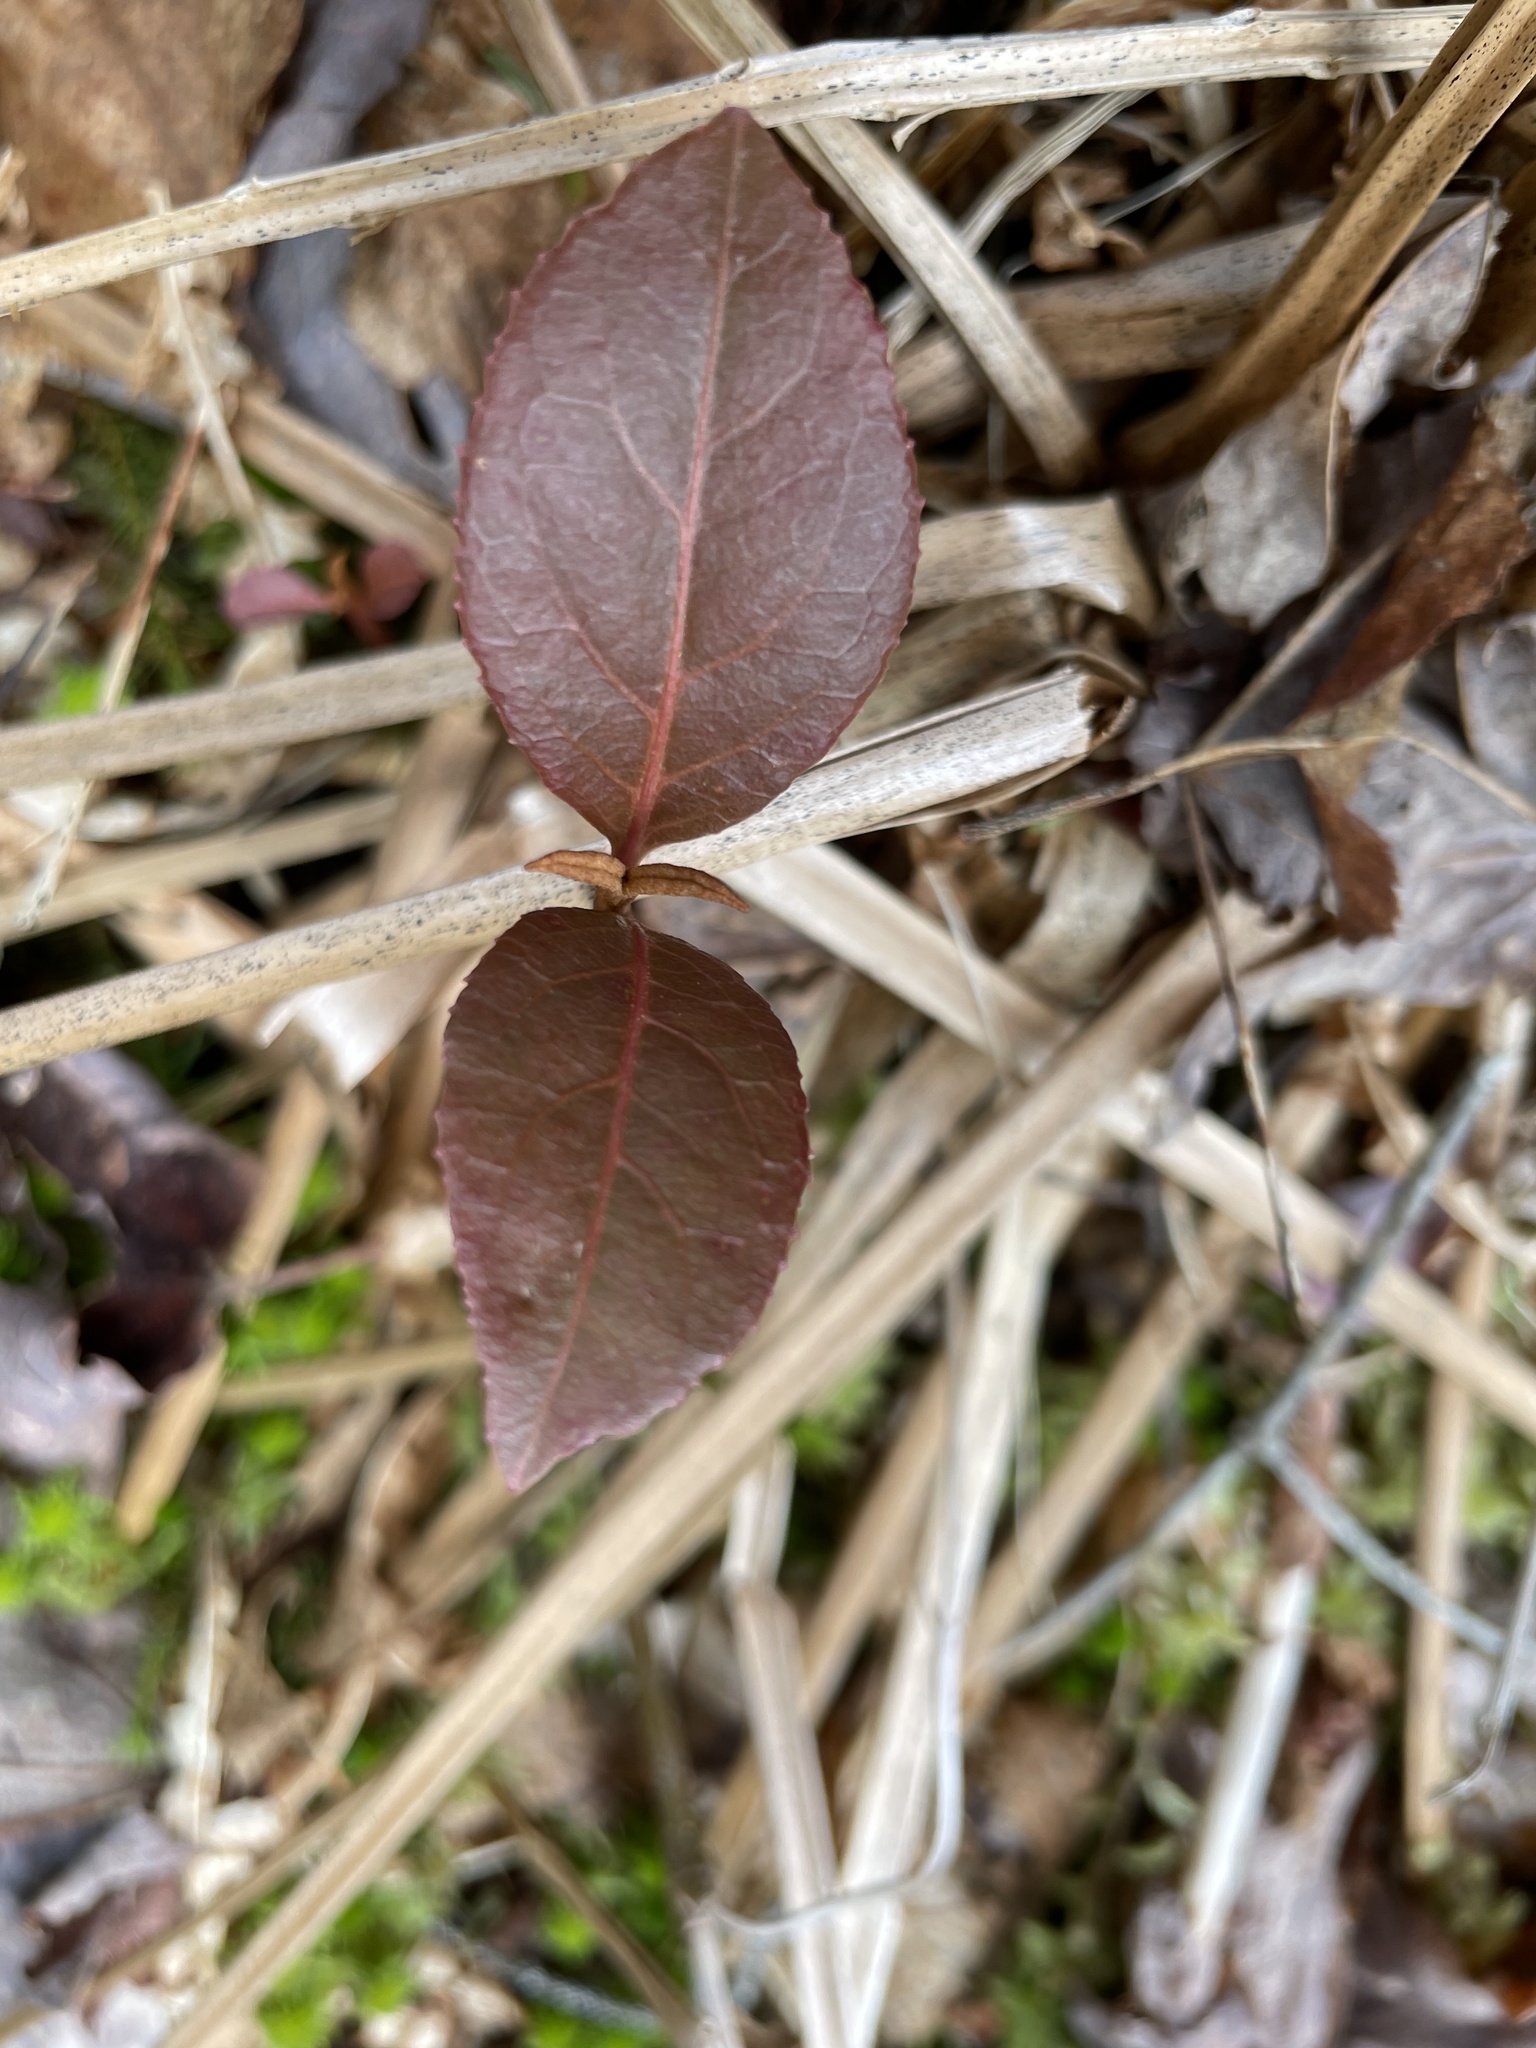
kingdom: Plantae
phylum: Tracheophyta
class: Magnoliopsida
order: Dipsacales
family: Viburnaceae
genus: Viburnum
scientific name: Viburnum cassinoides
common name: Swamp haw
